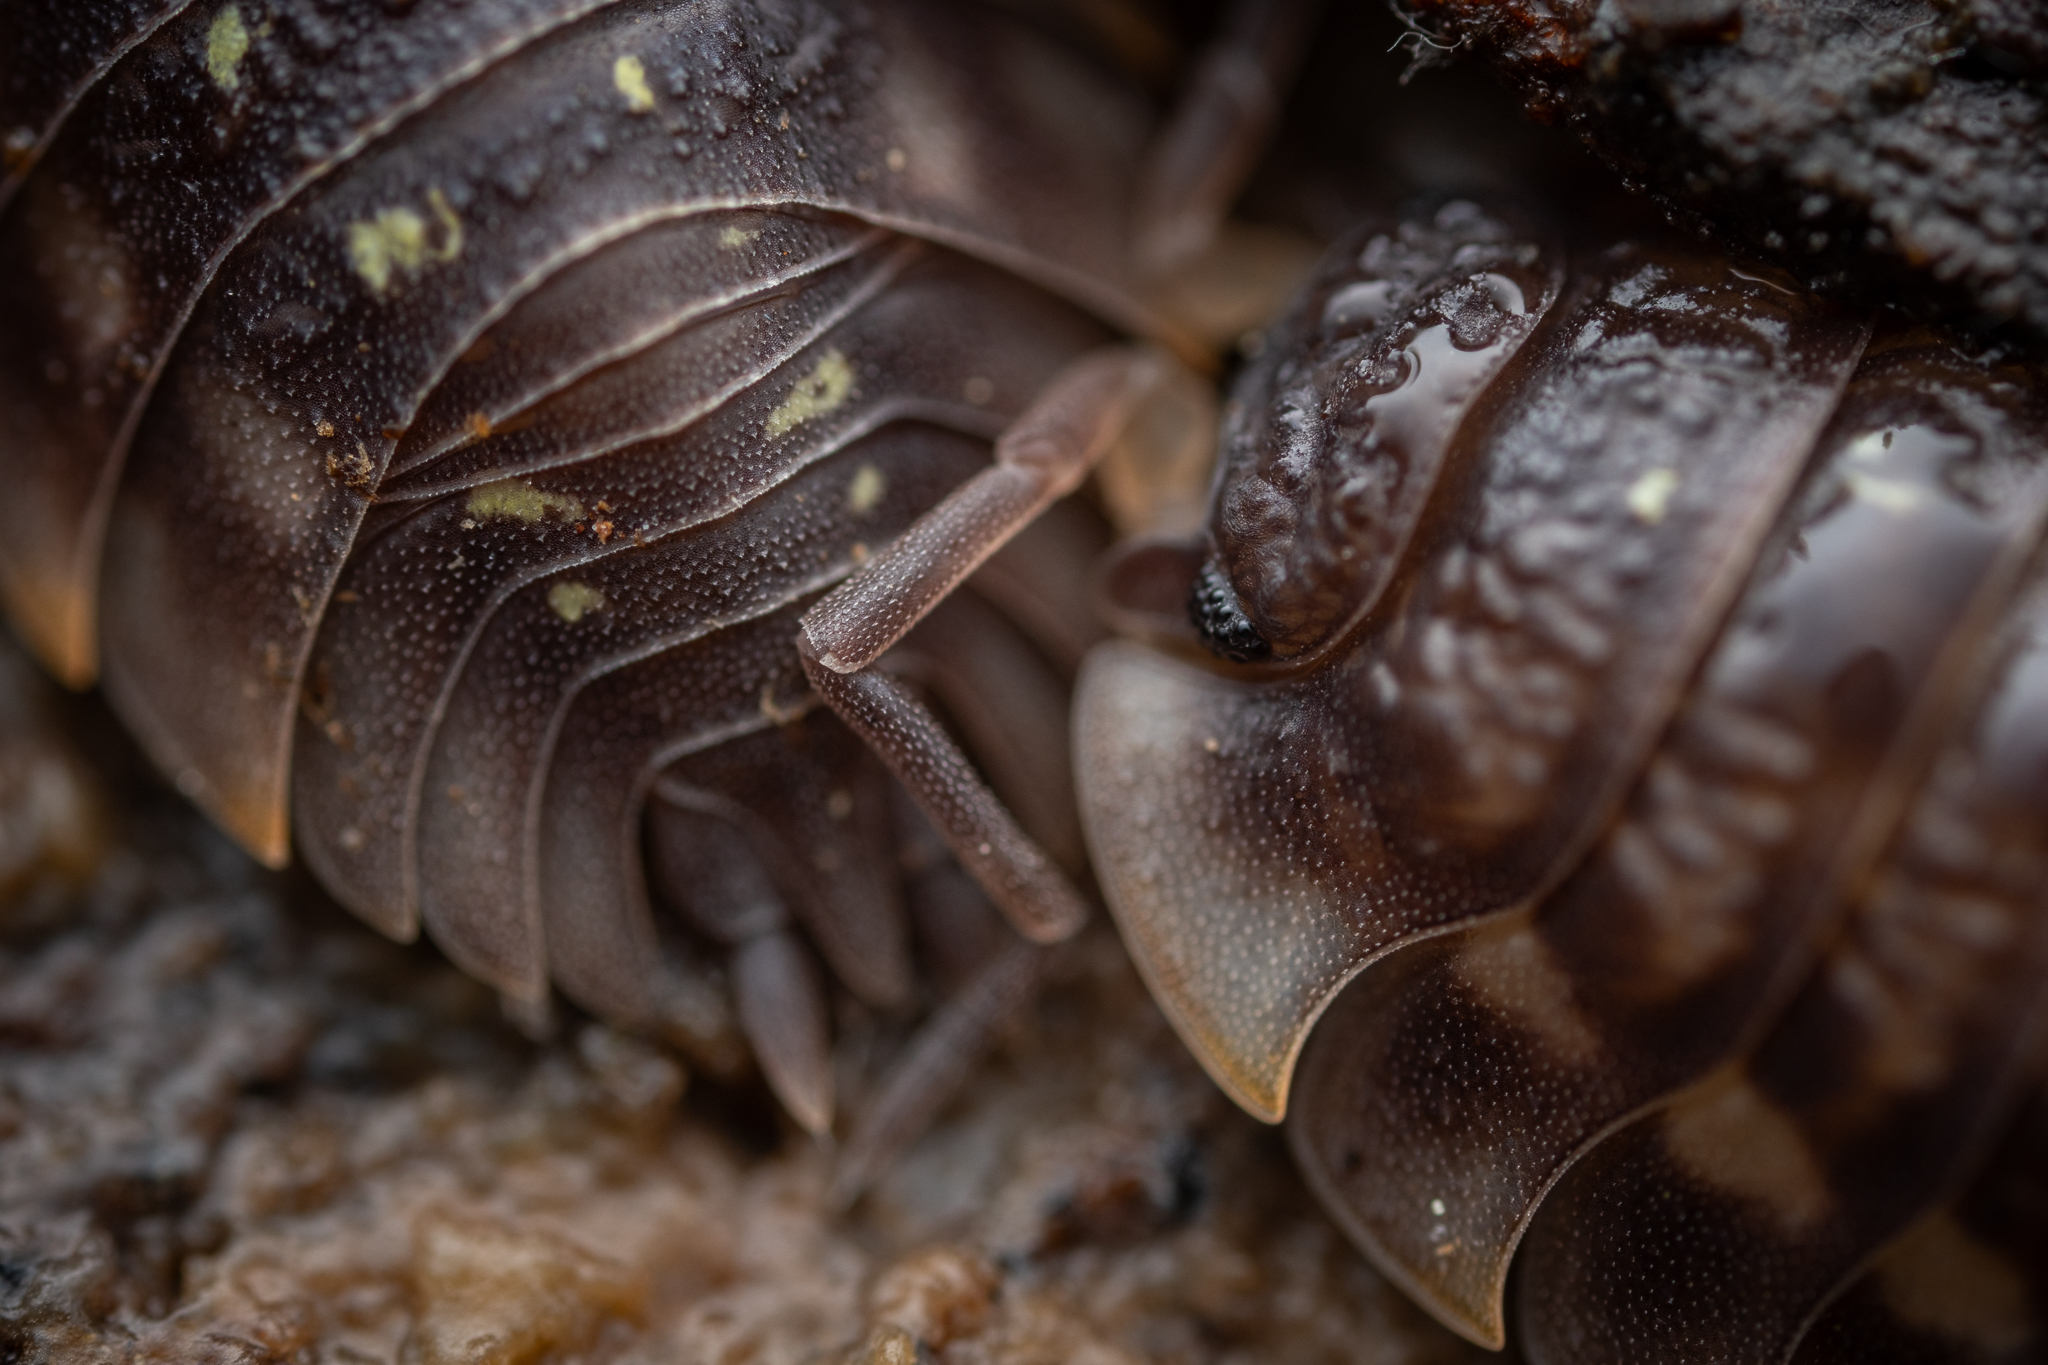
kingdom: Animalia
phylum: Arthropoda
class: Malacostraca
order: Isopoda
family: Oniscidae
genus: Oniscus
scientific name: Oniscus asellus
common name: Common shiny woodlouse
